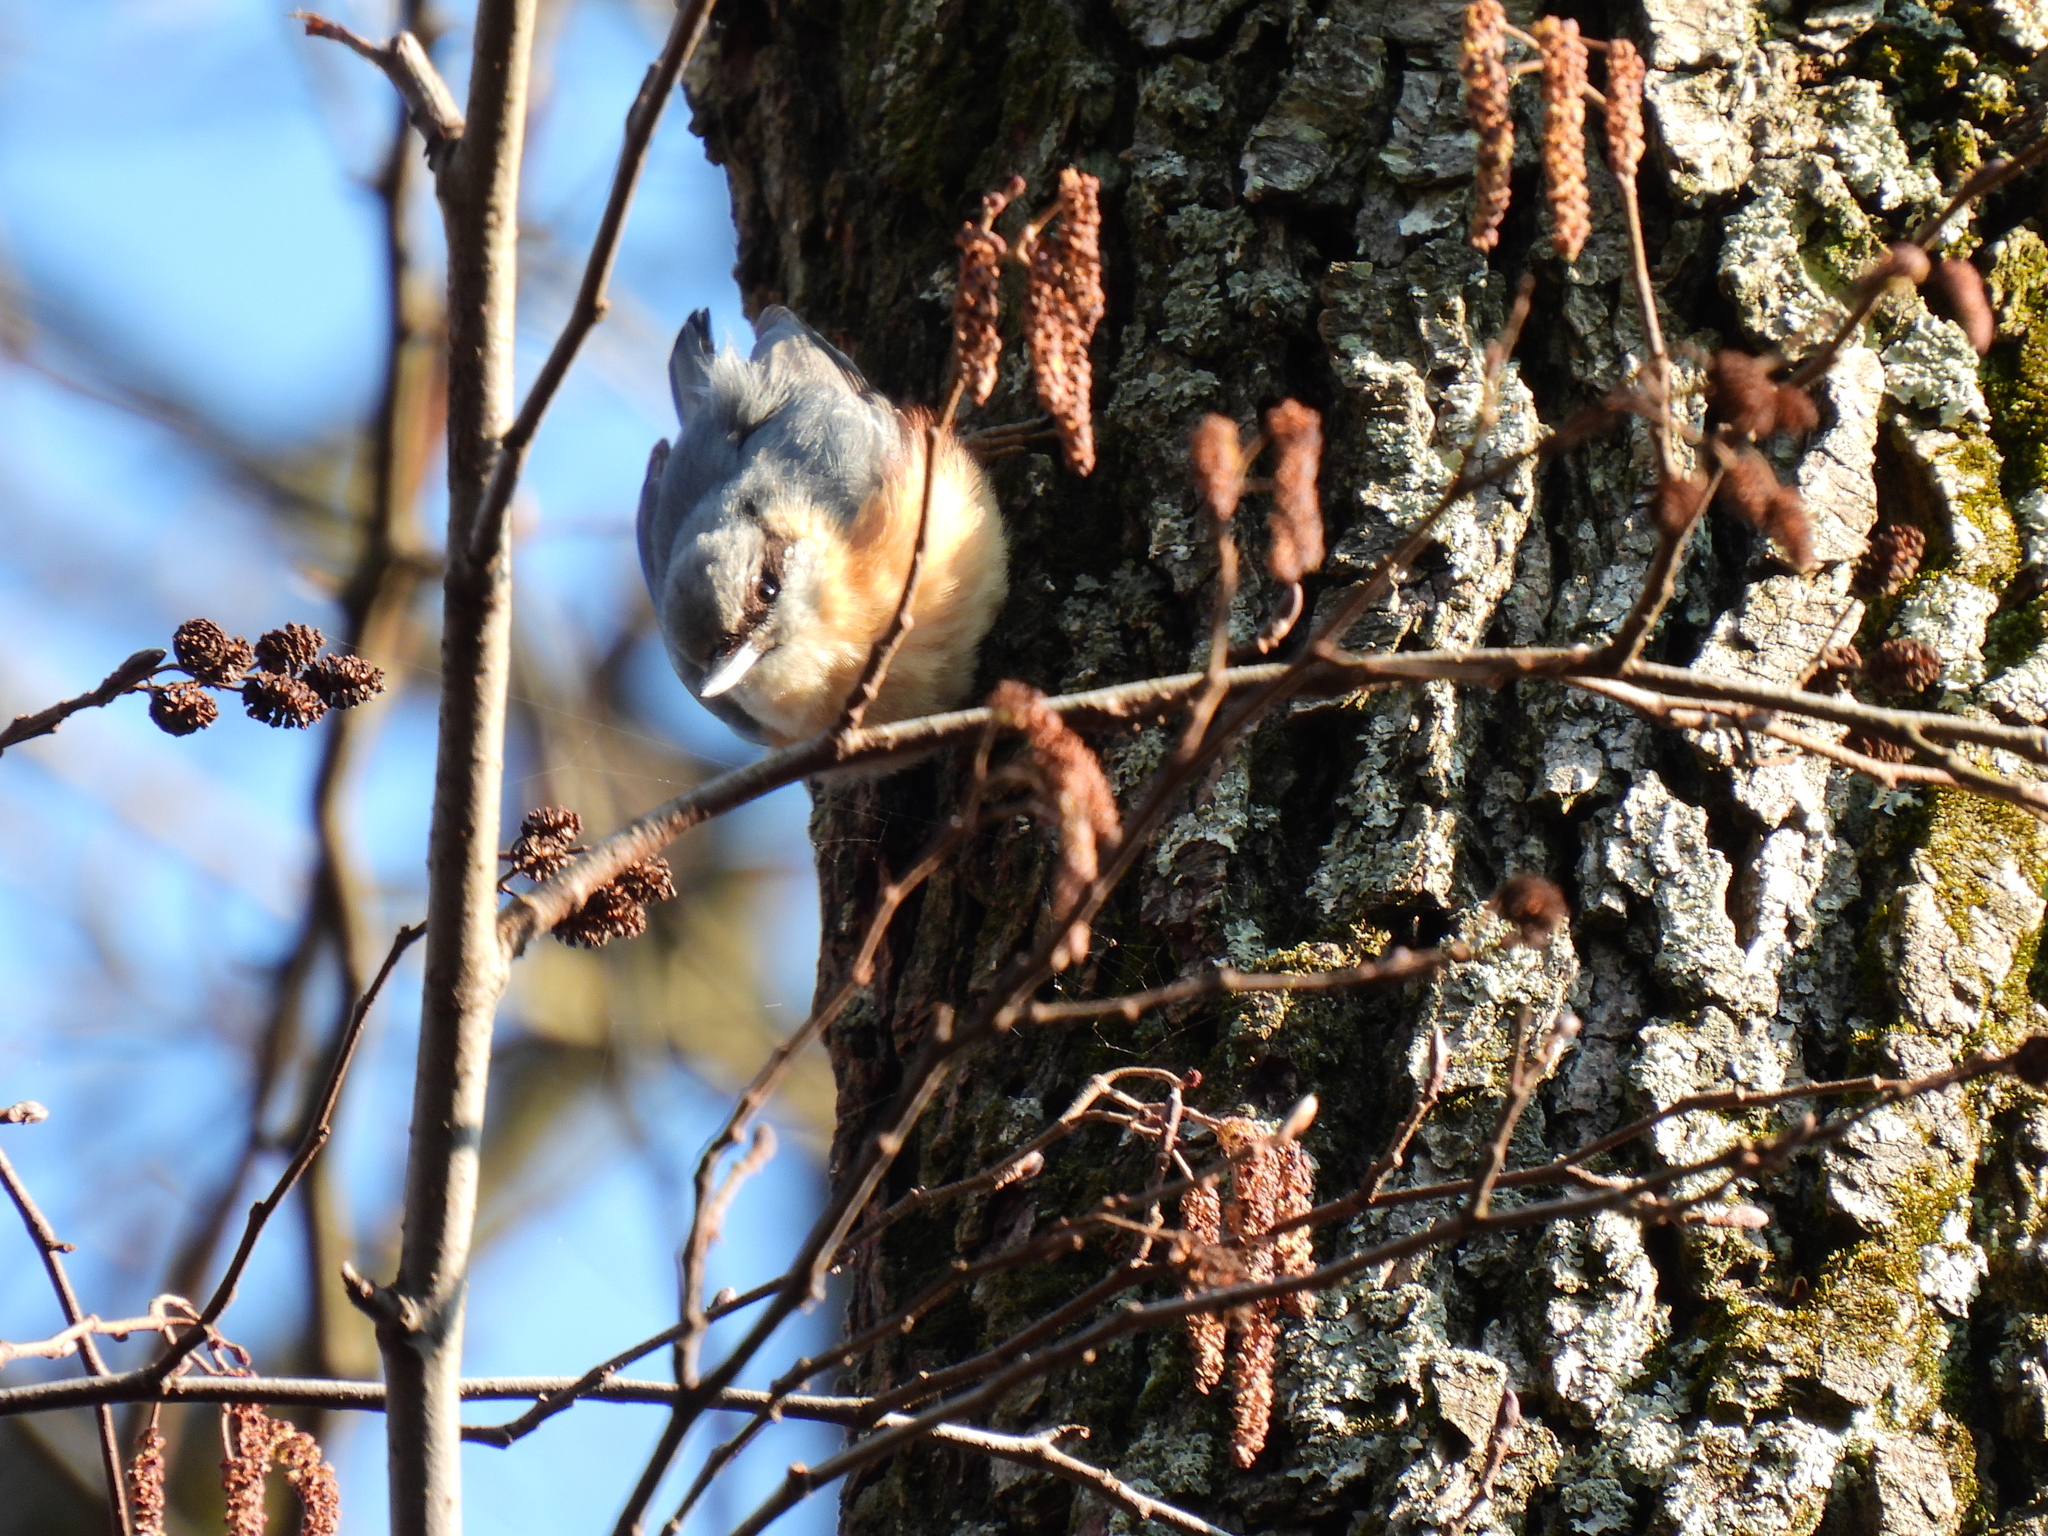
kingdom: Animalia
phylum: Chordata
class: Aves
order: Passeriformes
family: Sittidae
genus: Sitta
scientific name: Sitta europaea
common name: Eurasian nuthatch
